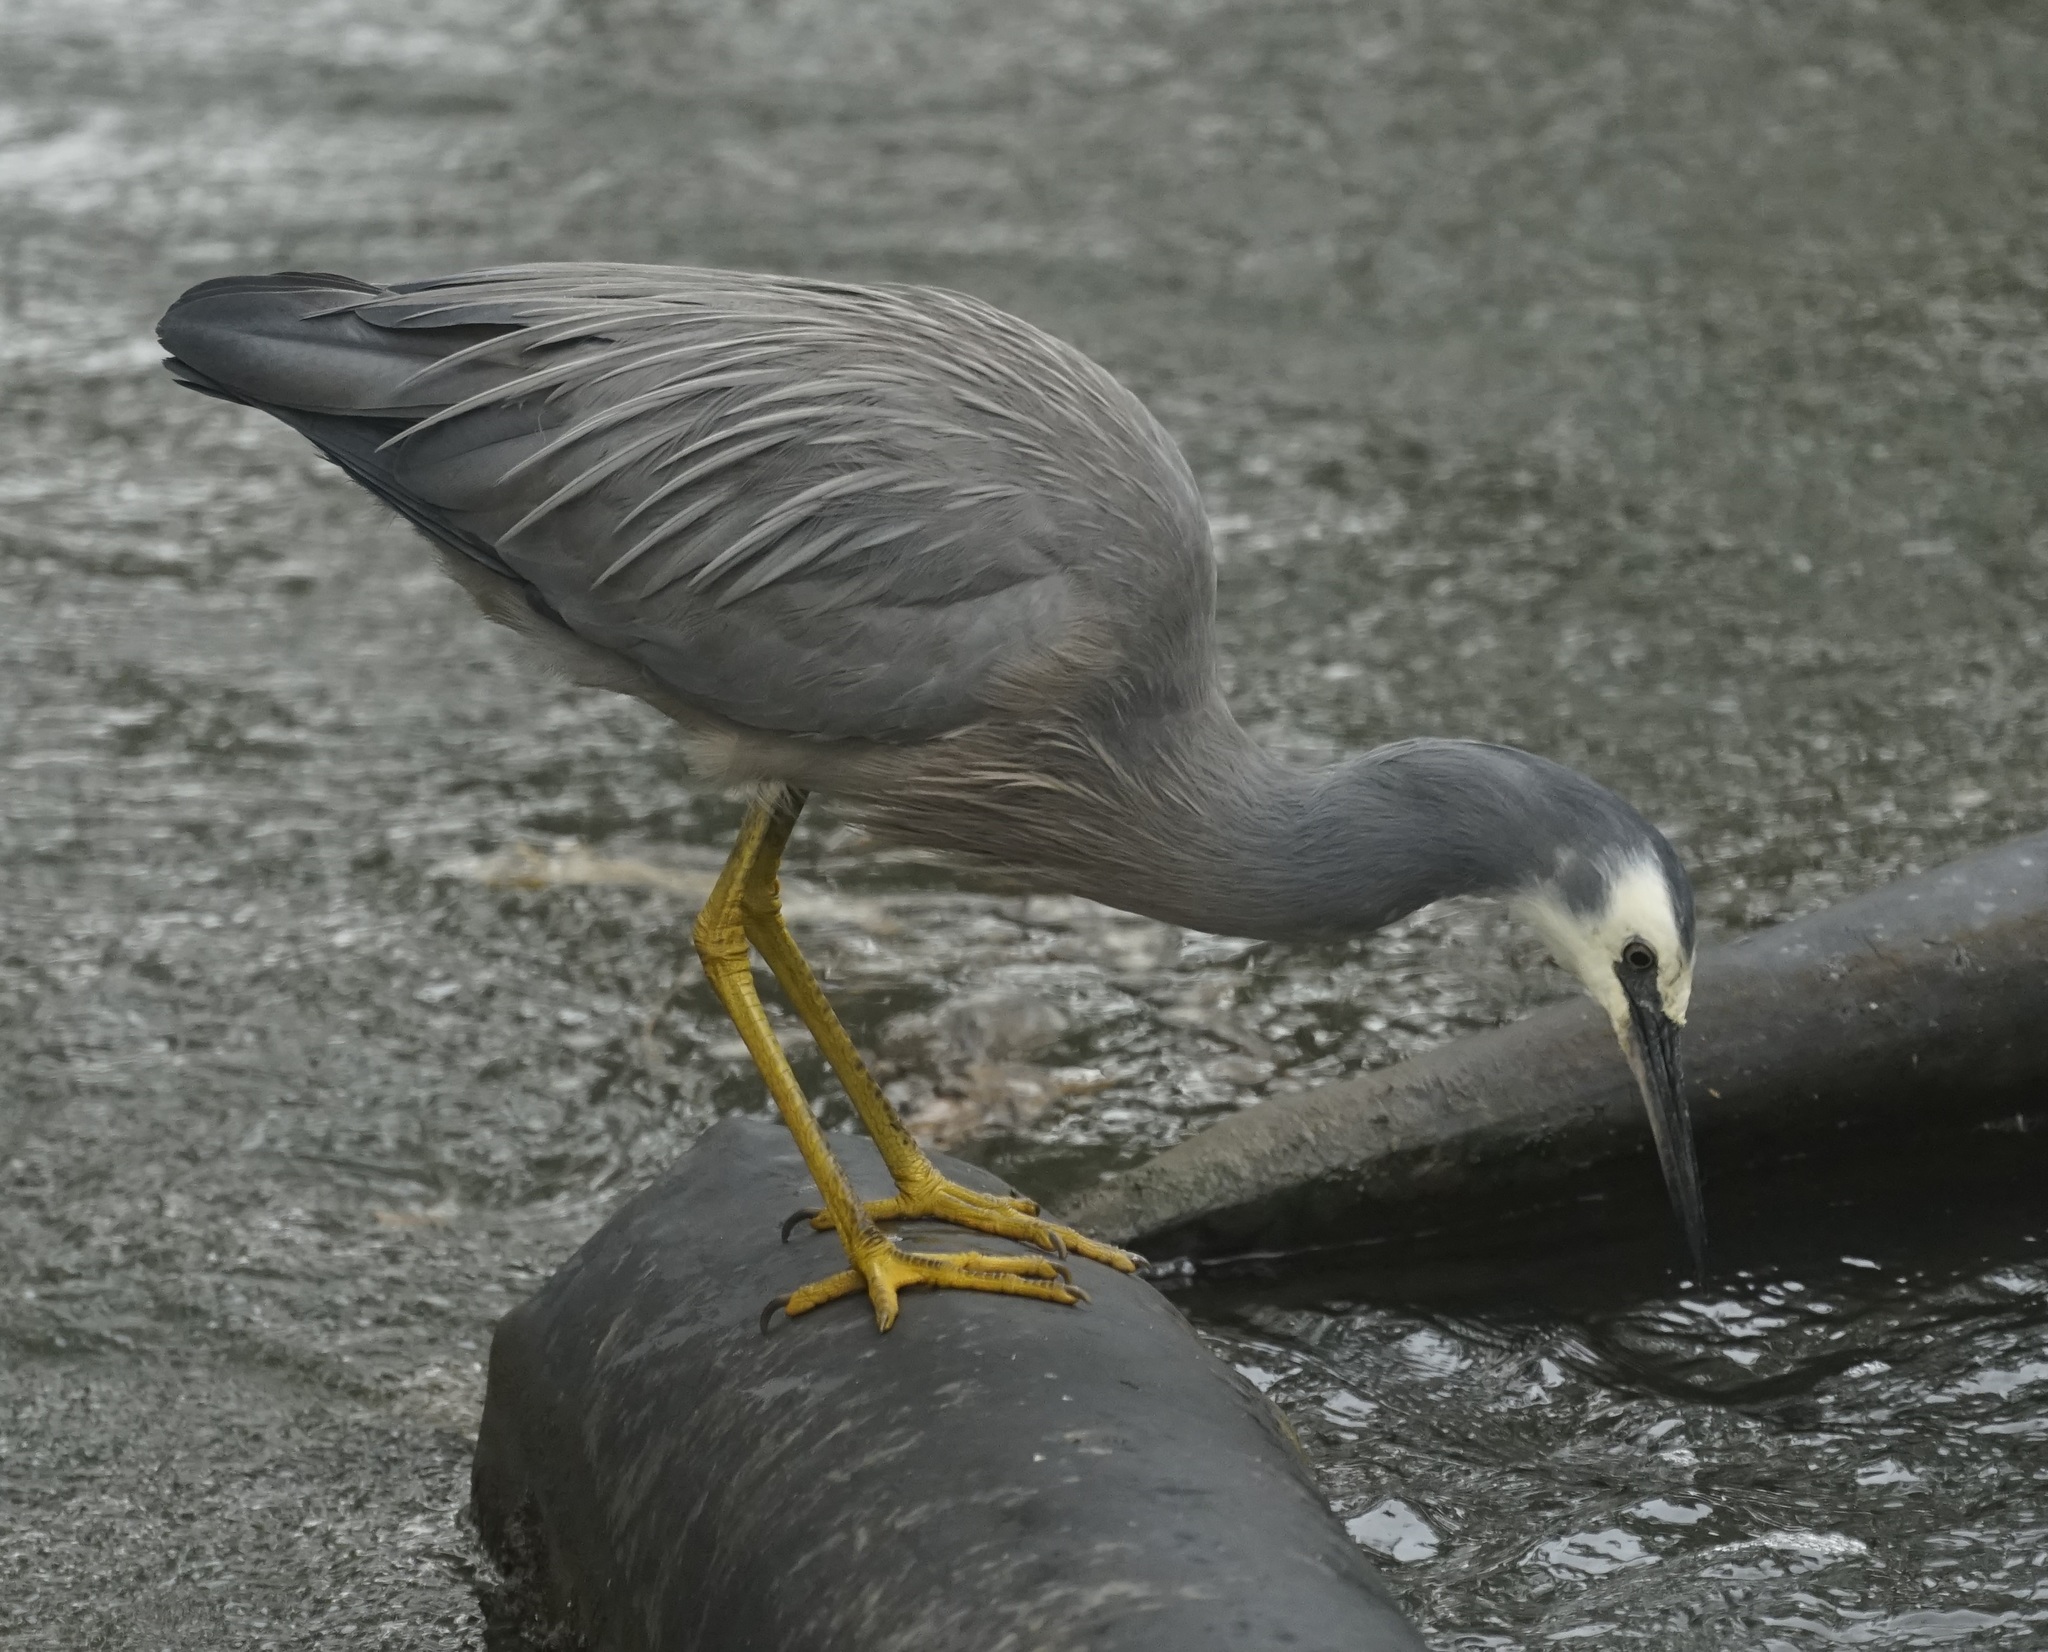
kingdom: Animalia
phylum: Chordata
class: Aves
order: Pelecaniformes
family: Ardeidae
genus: Egretta
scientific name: Egretta novaehollandiae
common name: White-faced heron
